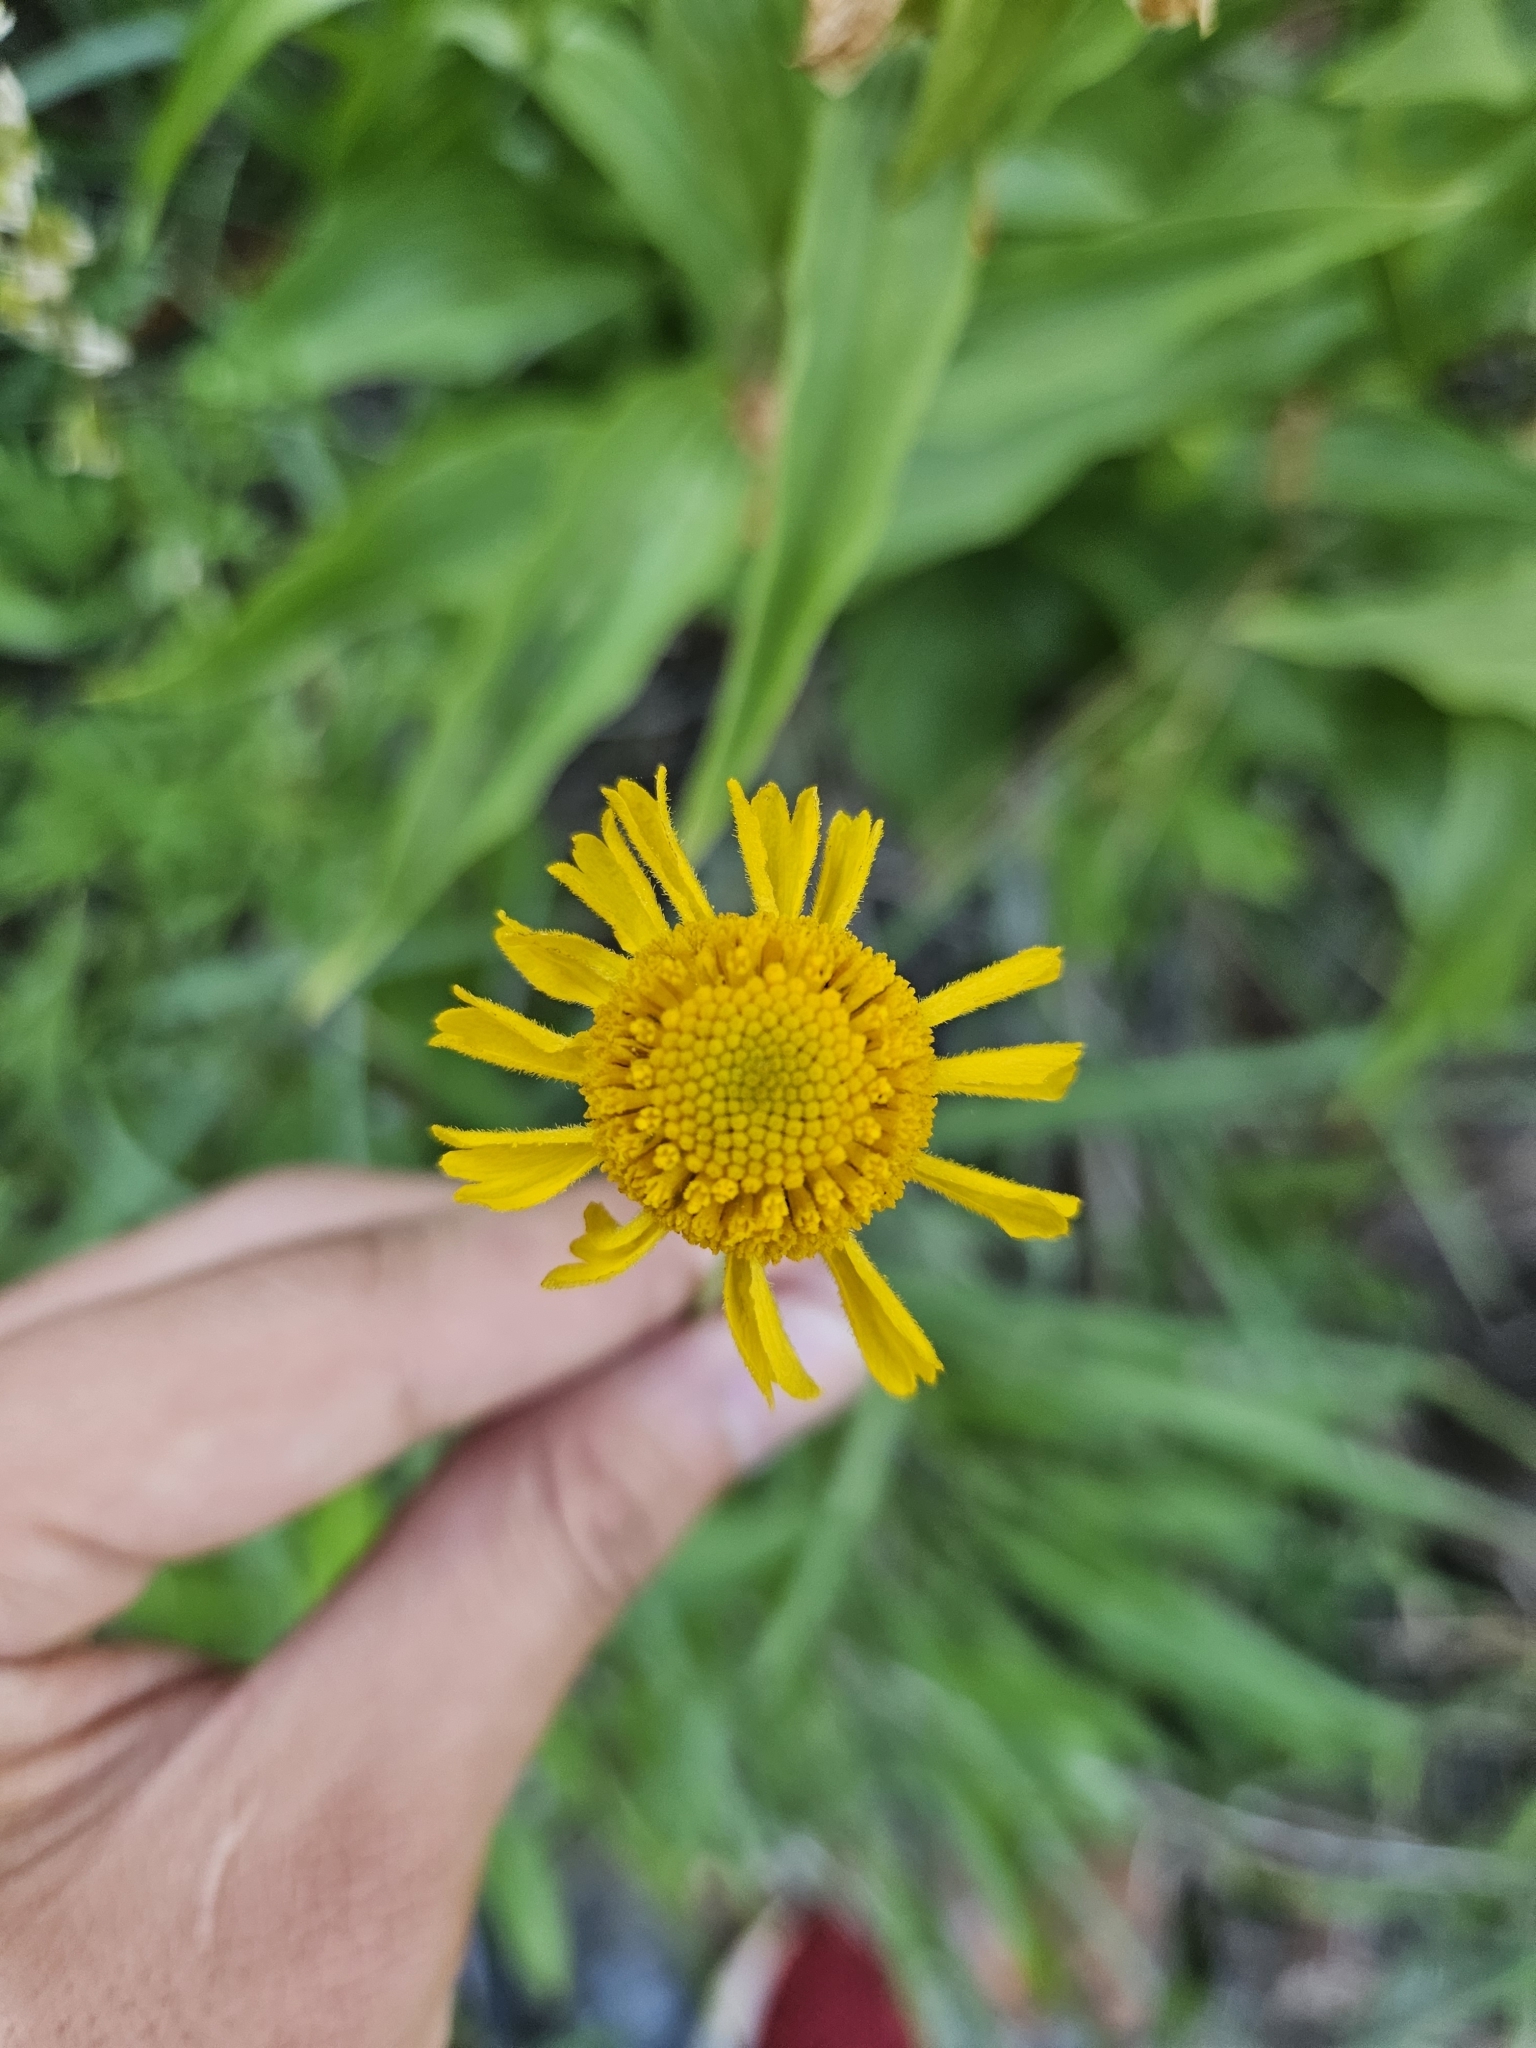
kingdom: Plantae
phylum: Tracheophyta
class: Magnoliopsida
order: Asterales
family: Asteraceae
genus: Helenium
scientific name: Helenium bigelovii
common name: Bigelow's sneezeweed
